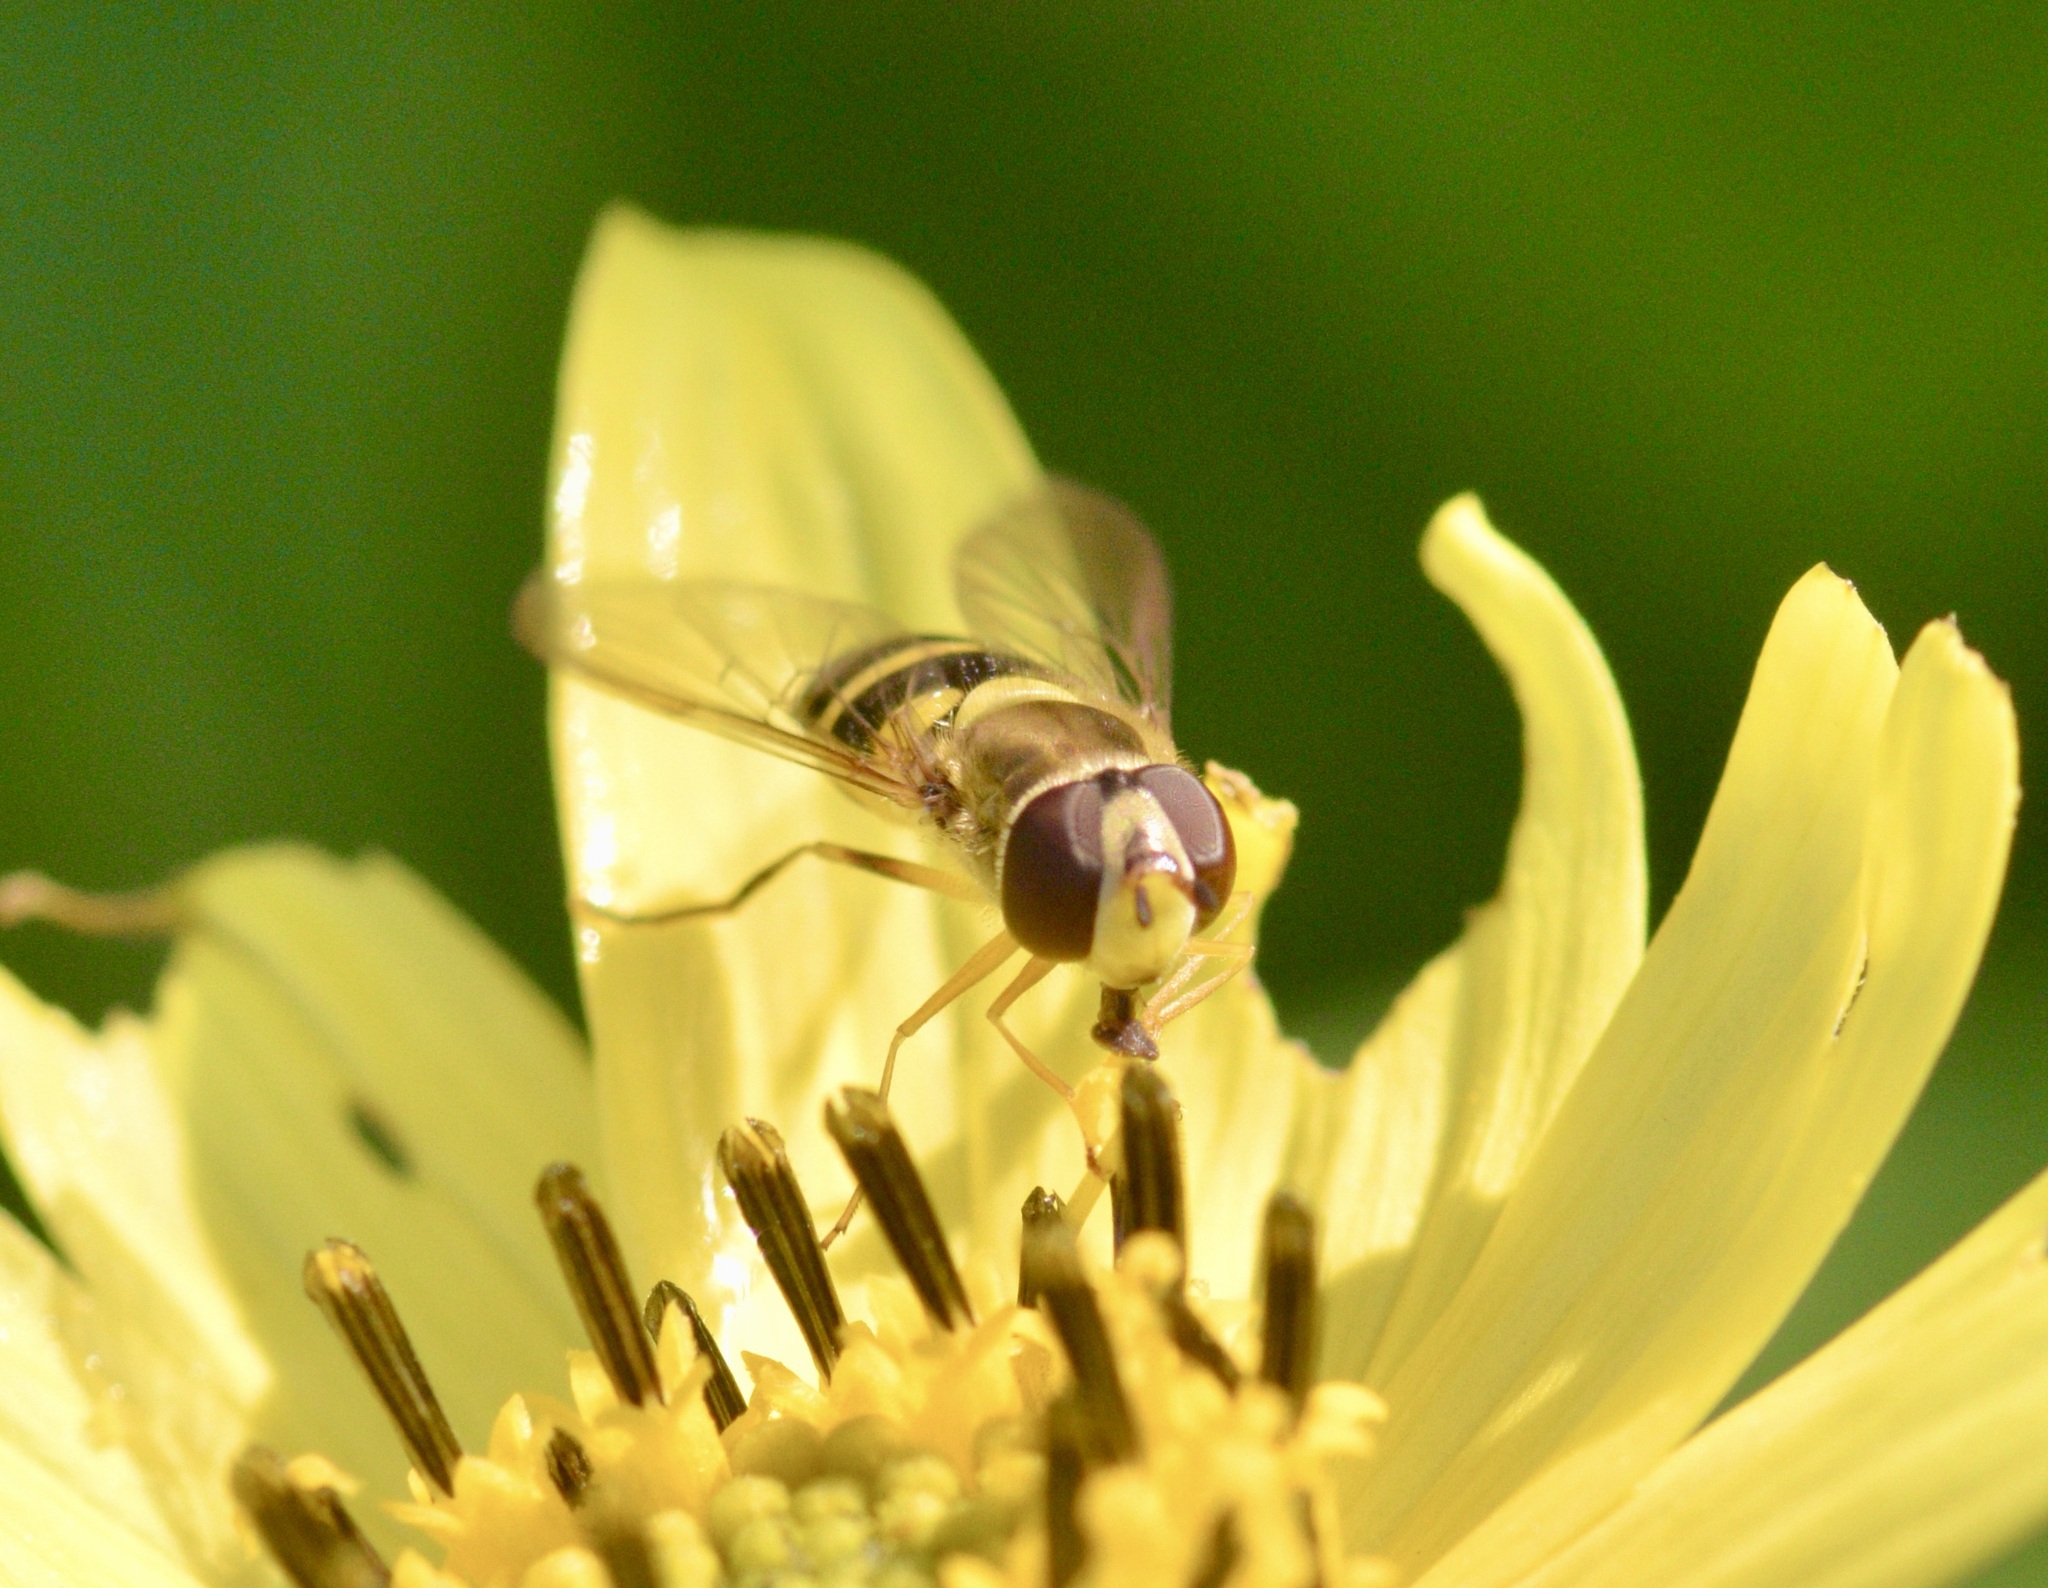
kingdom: Animalia
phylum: Arthropoda
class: Insecta
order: Diptera
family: Syrphidae
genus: Syrphus
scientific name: Syrphus rectus
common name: Yellow-legged flower fly
